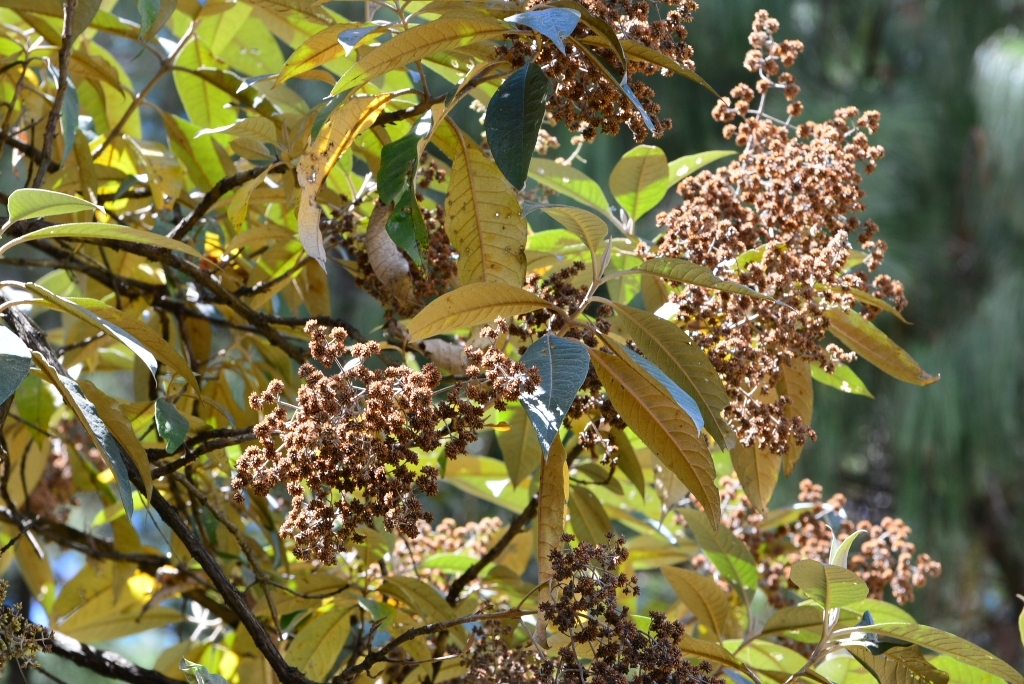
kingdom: Plantae
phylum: Tracheophyta
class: Magnoliopsida
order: Lamiales
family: Scrophulariaceae
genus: Buddleja
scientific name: Buddleja cordata
